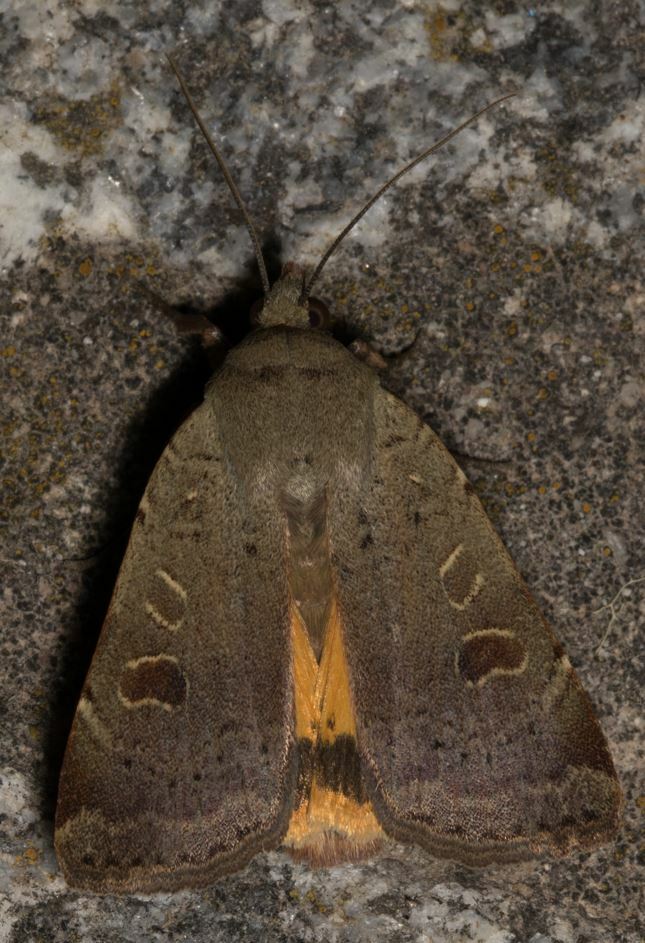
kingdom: Animalia
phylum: Arthropoda
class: Insecta
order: Lepidoptera
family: Noctuidae
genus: Noctua
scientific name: Noctua comes
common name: Lesser yellow underwing
